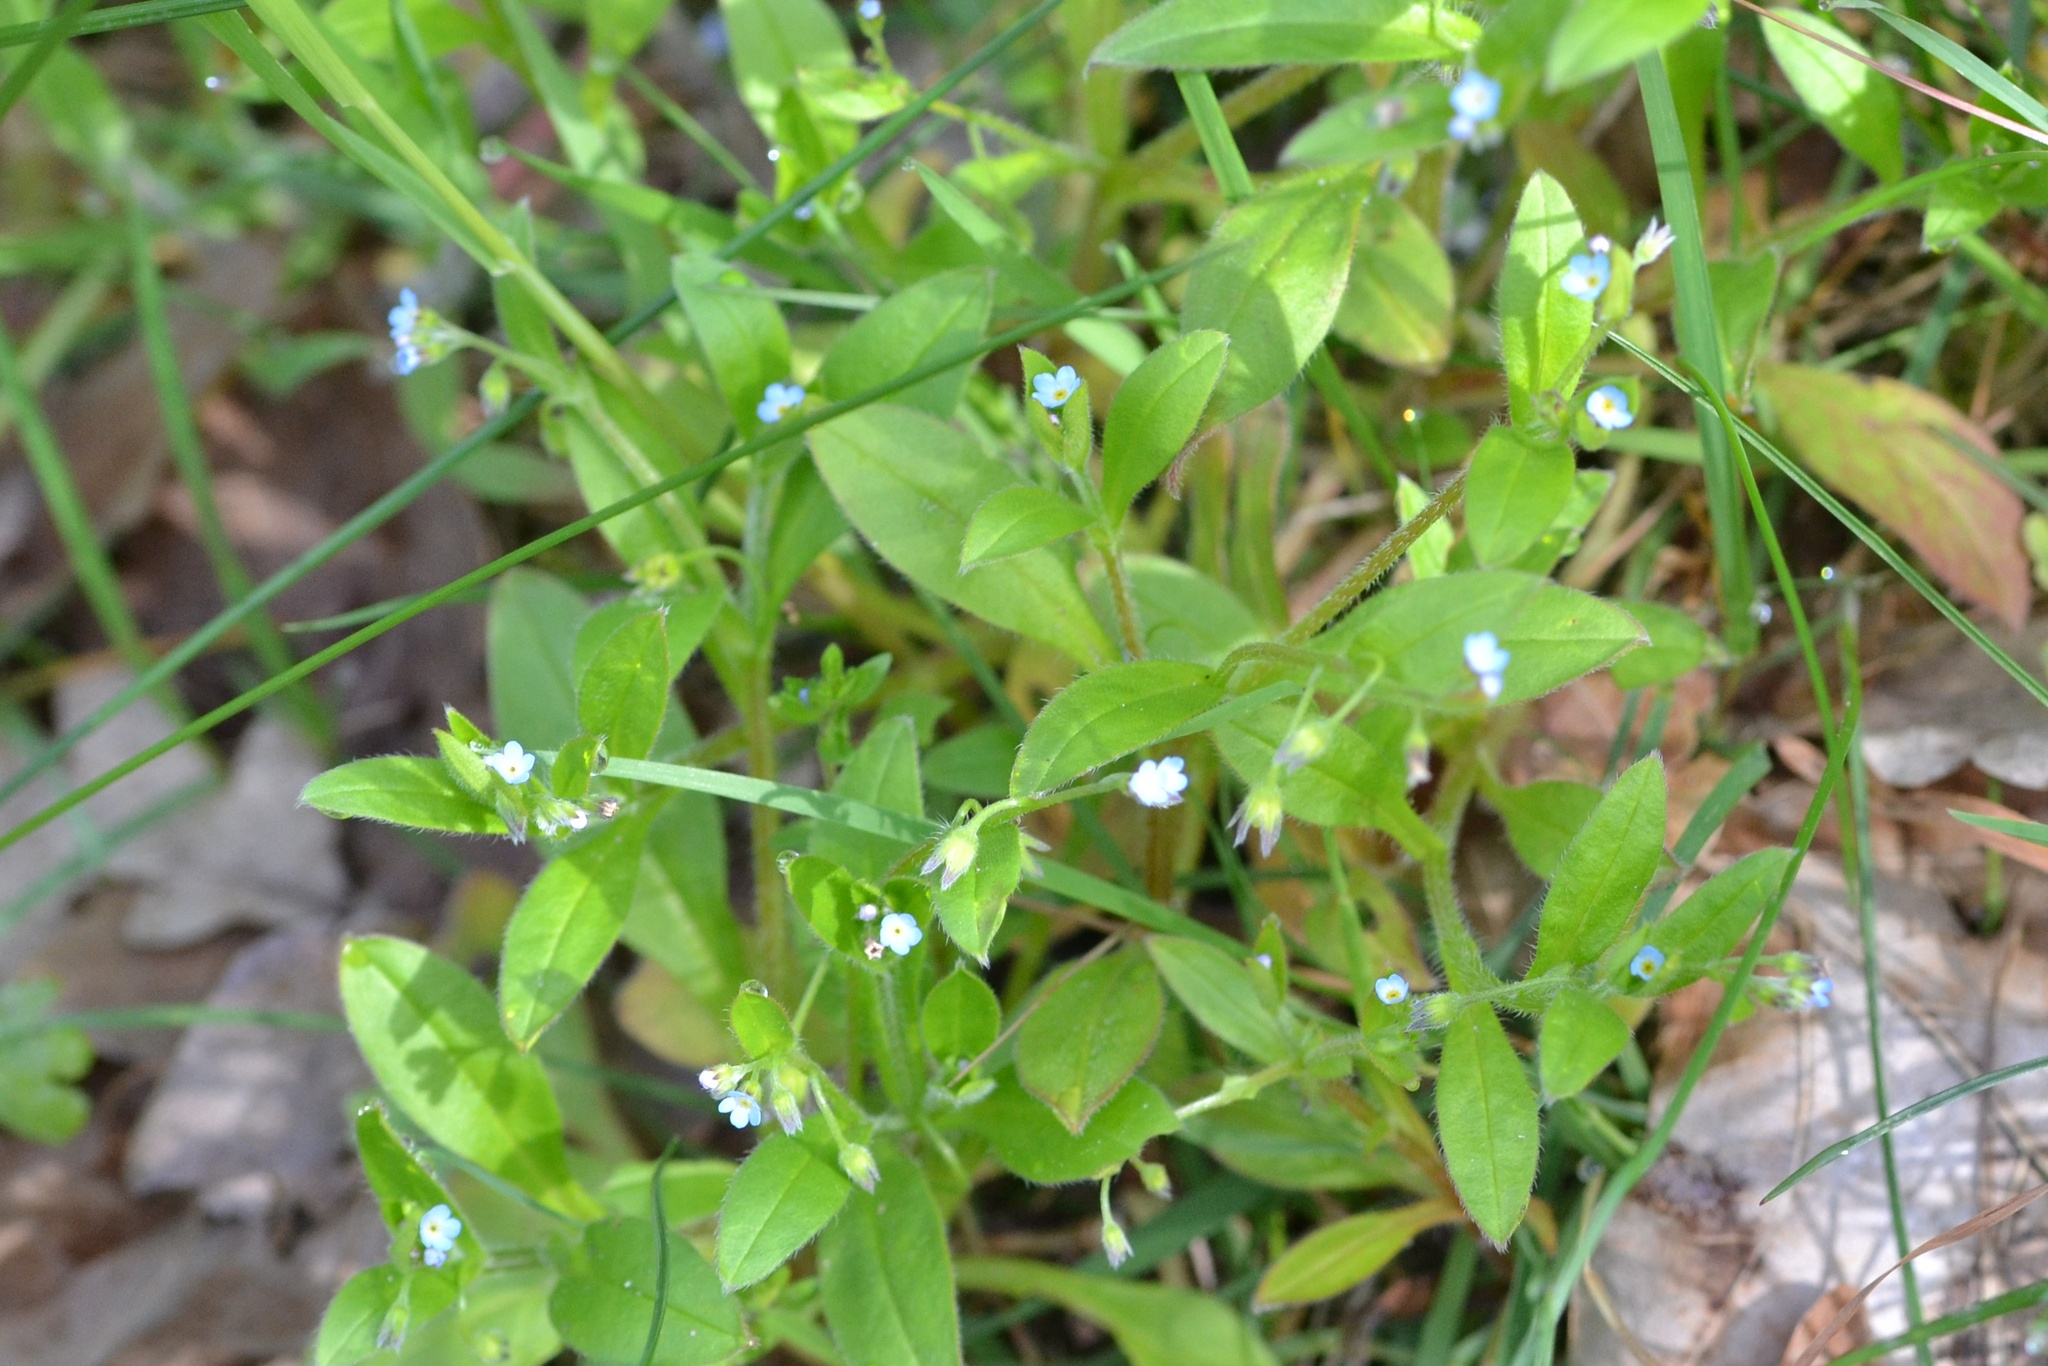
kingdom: Plantae
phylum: Tracheophyta
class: Magnoliopsida
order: Boraginales
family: Boraginaceae
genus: Myosotis
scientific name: Myosotis sparsiflora
